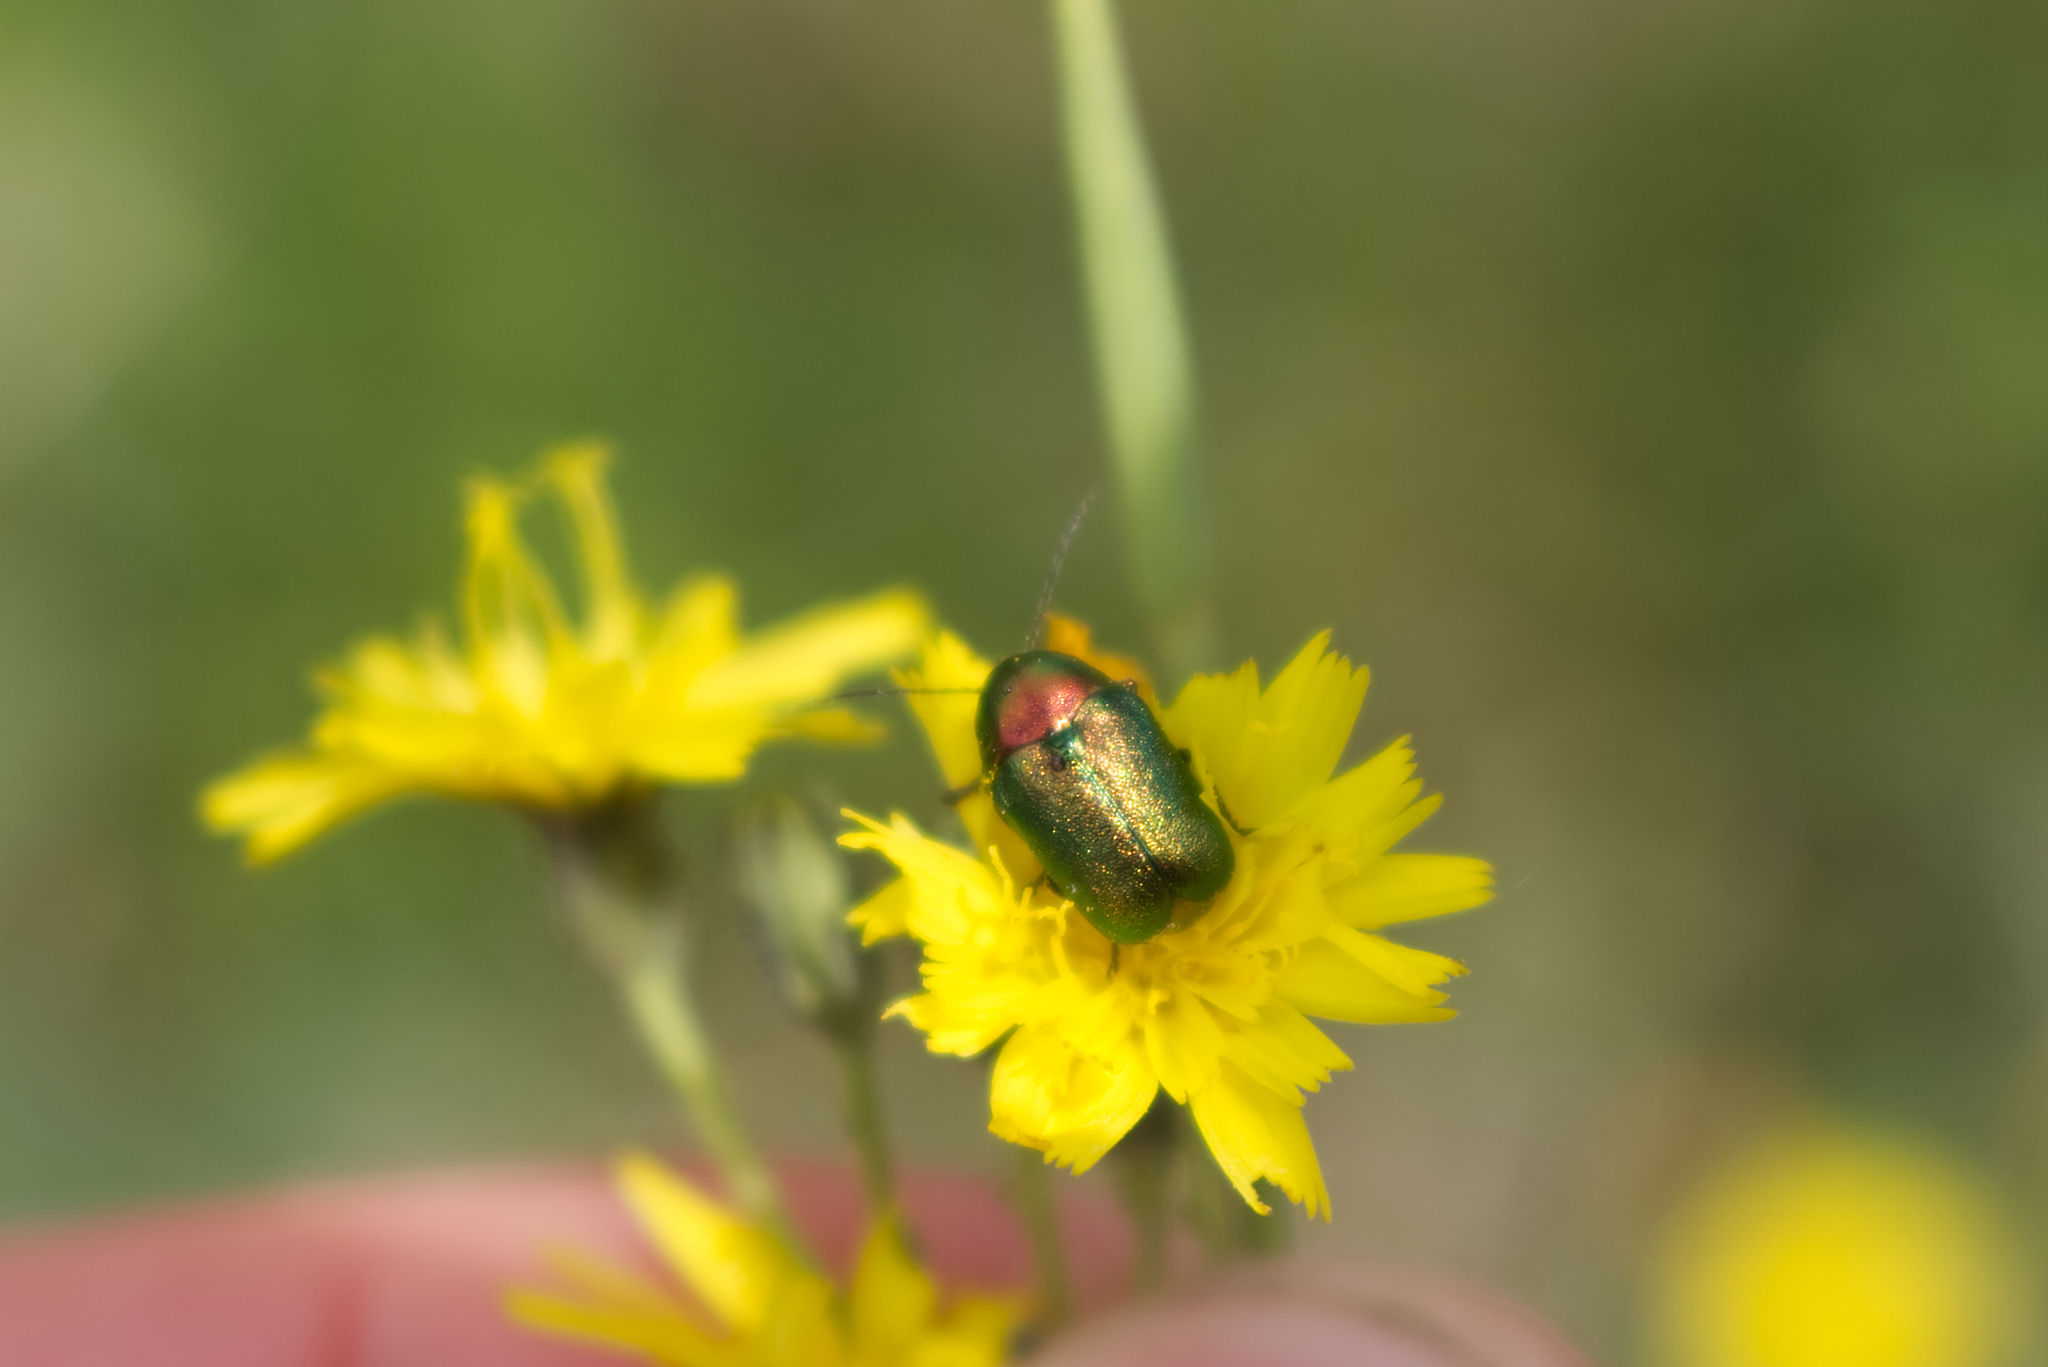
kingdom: Animalia
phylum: Arthropoda
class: Insecta
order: Coleoptera
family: Chrysomelidae
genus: Cryptocephalus
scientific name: Cryptocephalus
